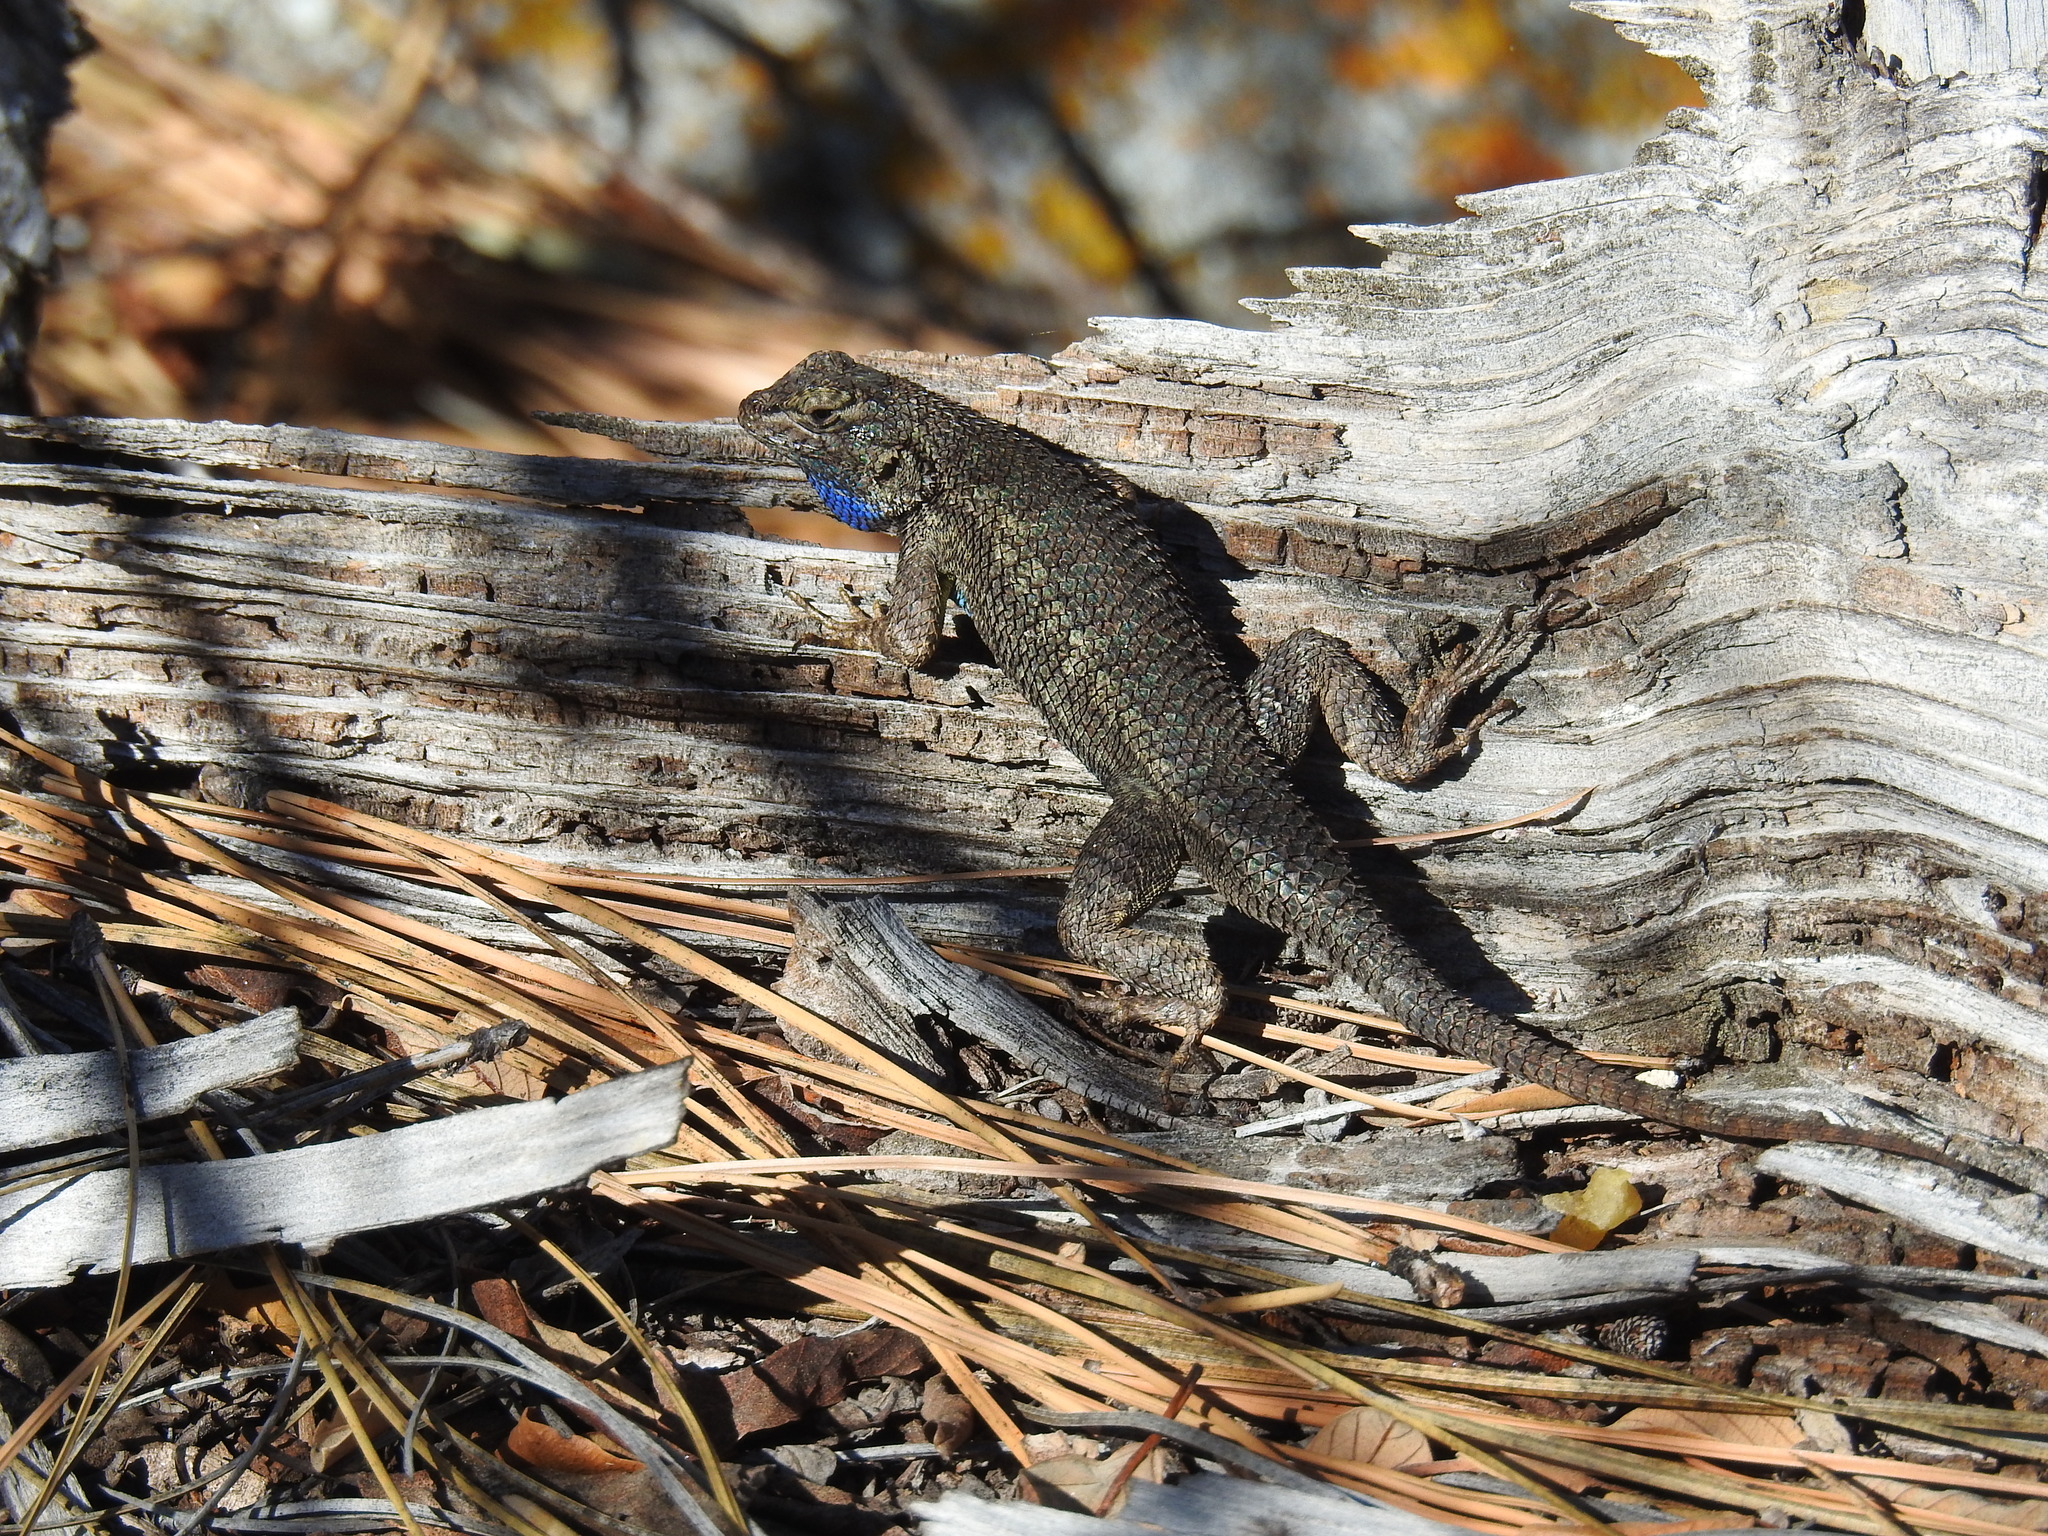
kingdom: Animalia
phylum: Chordata
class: Squamata
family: Phrynosomatidae
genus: Sceloporus
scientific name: Sceloporus occidentalis
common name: Western fence lizard
